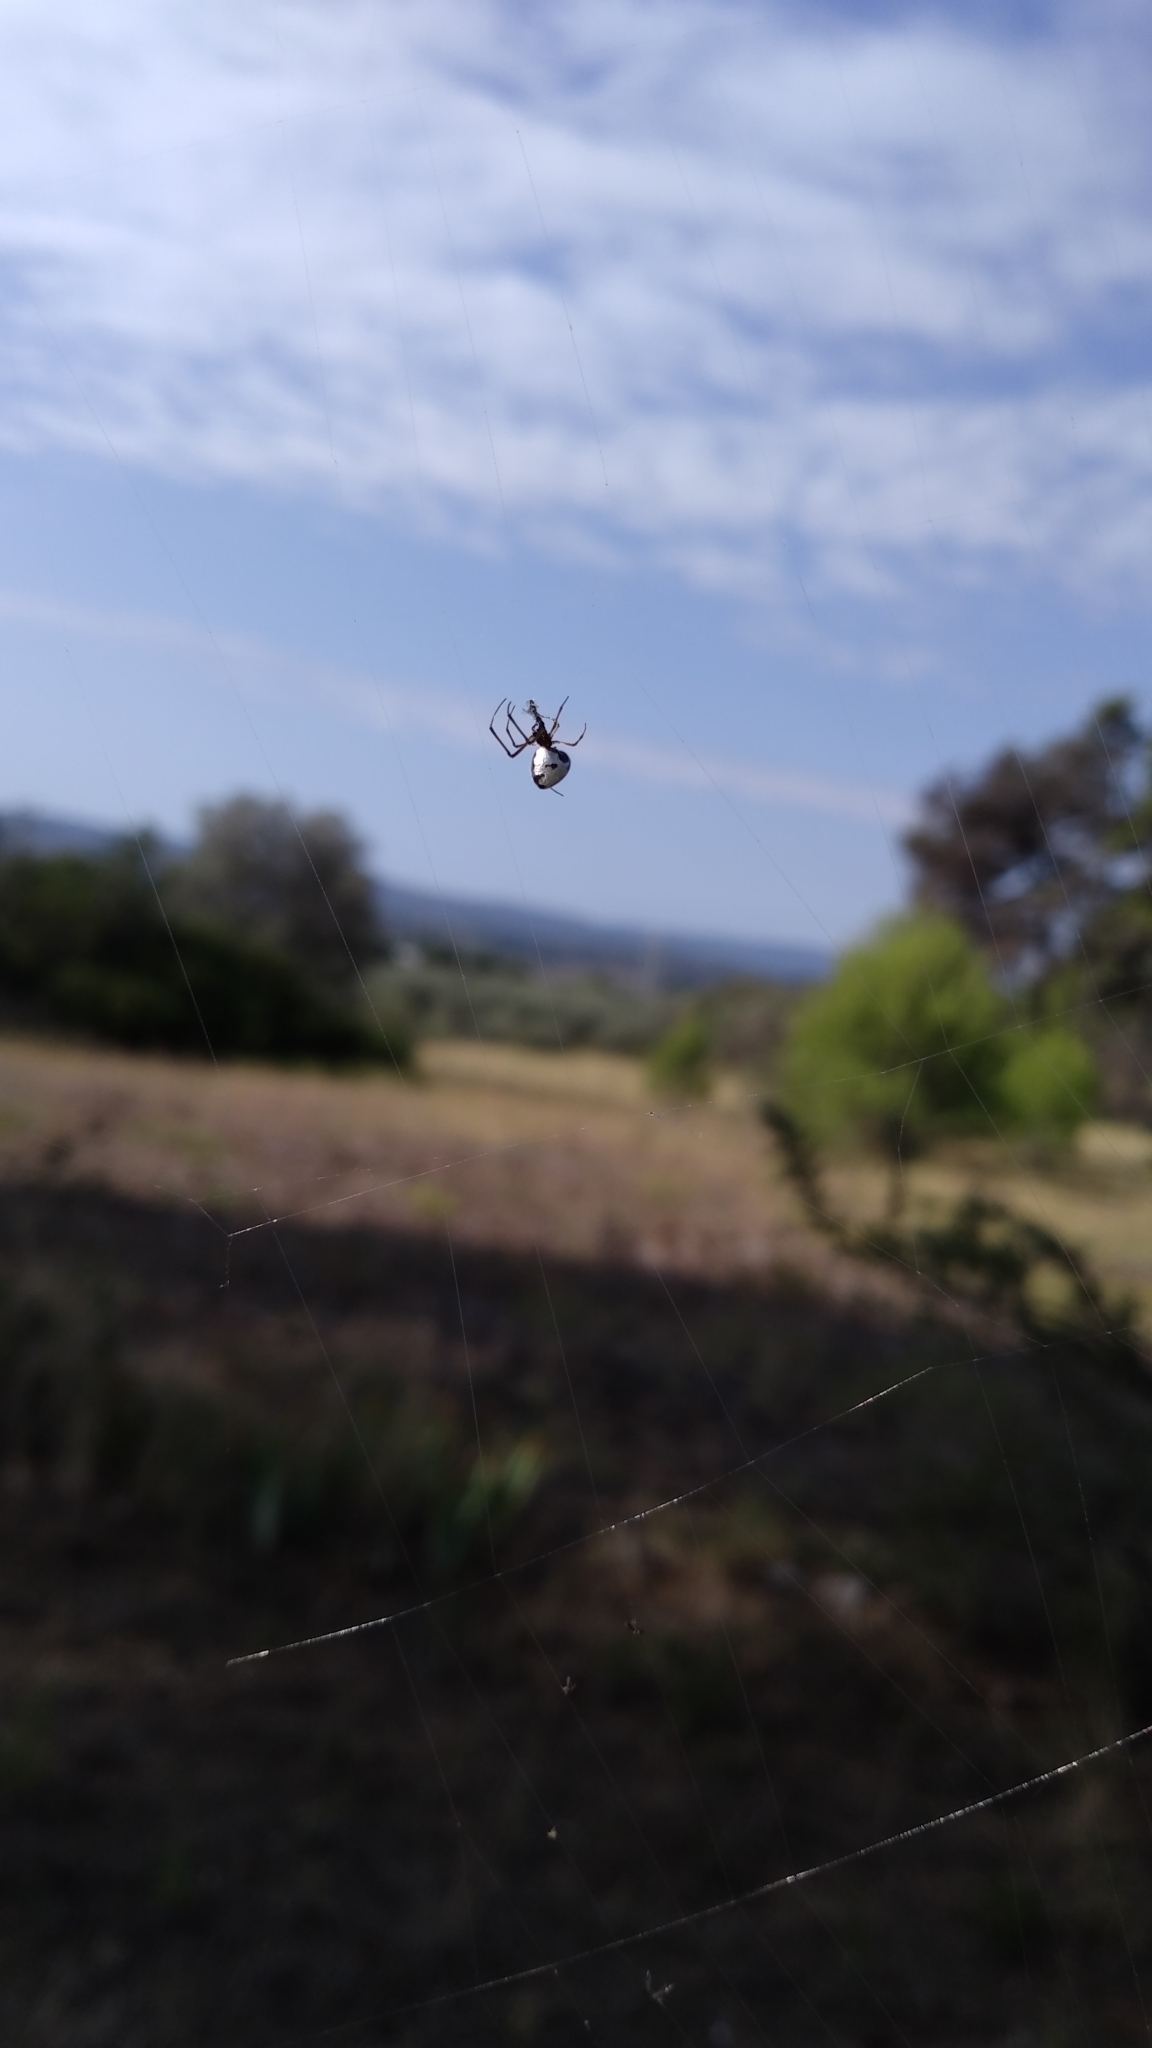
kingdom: Animalia
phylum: Arthropoda
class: Arachnida
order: Araneae
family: Araneidae
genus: Argiope
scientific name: Argiope lobata
